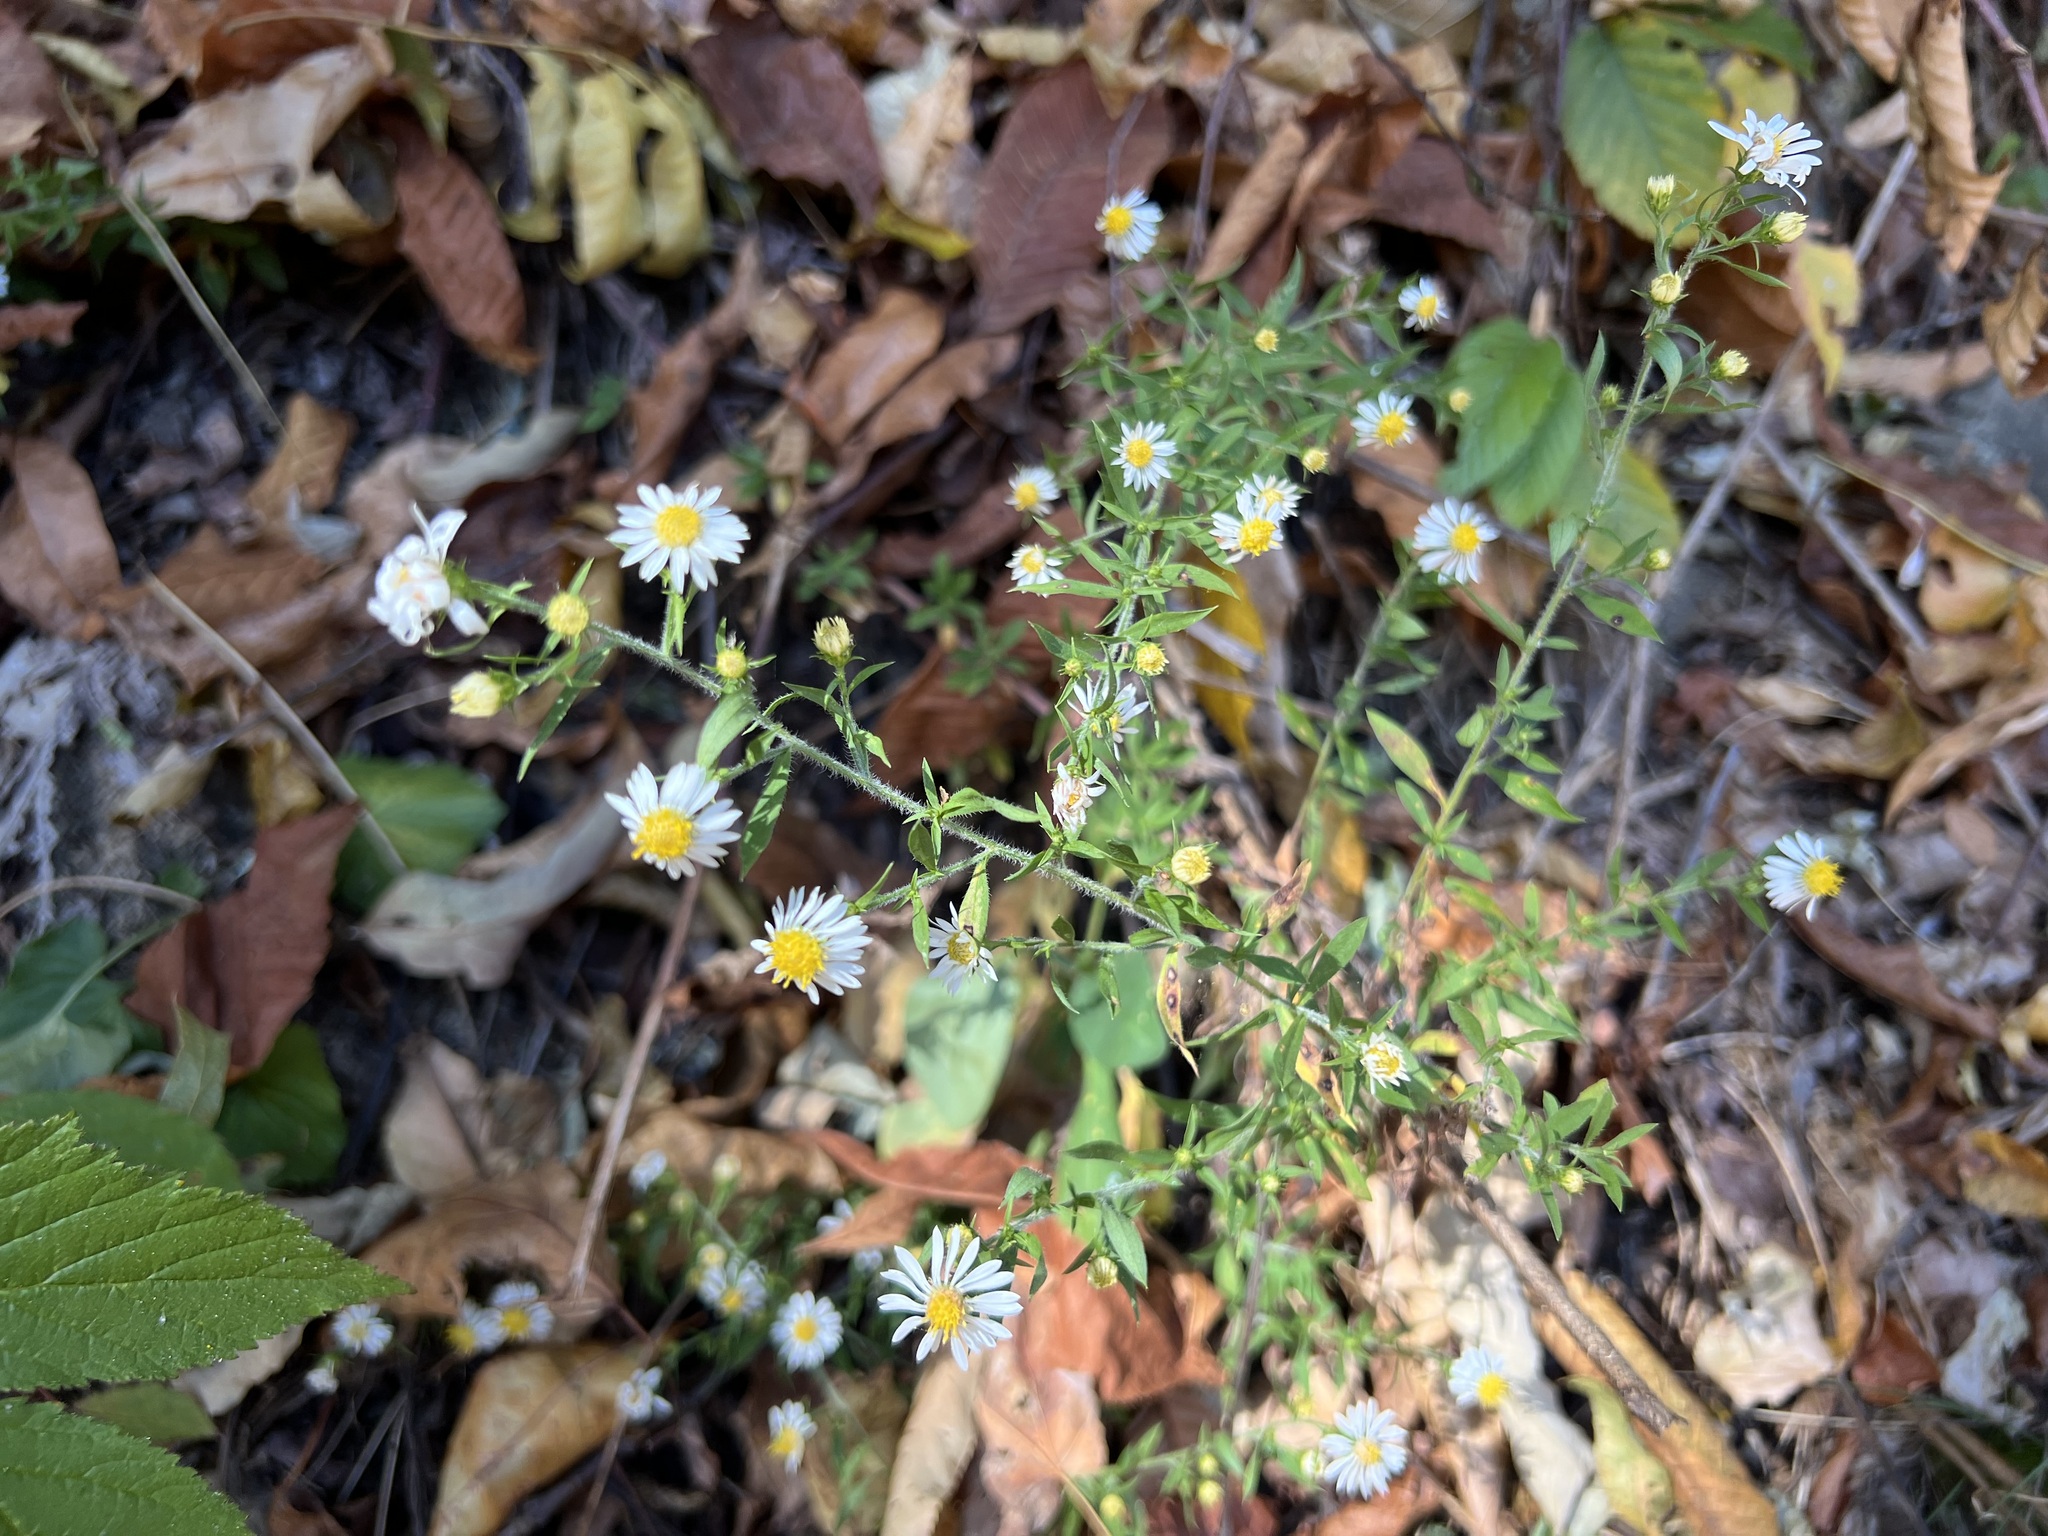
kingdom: Plantae
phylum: Tracheophyta
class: Magnoliopsida
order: Asterales
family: Asteraceae
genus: Symphyotrichum
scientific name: Symphyotrichum pilosum
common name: Awl aster
